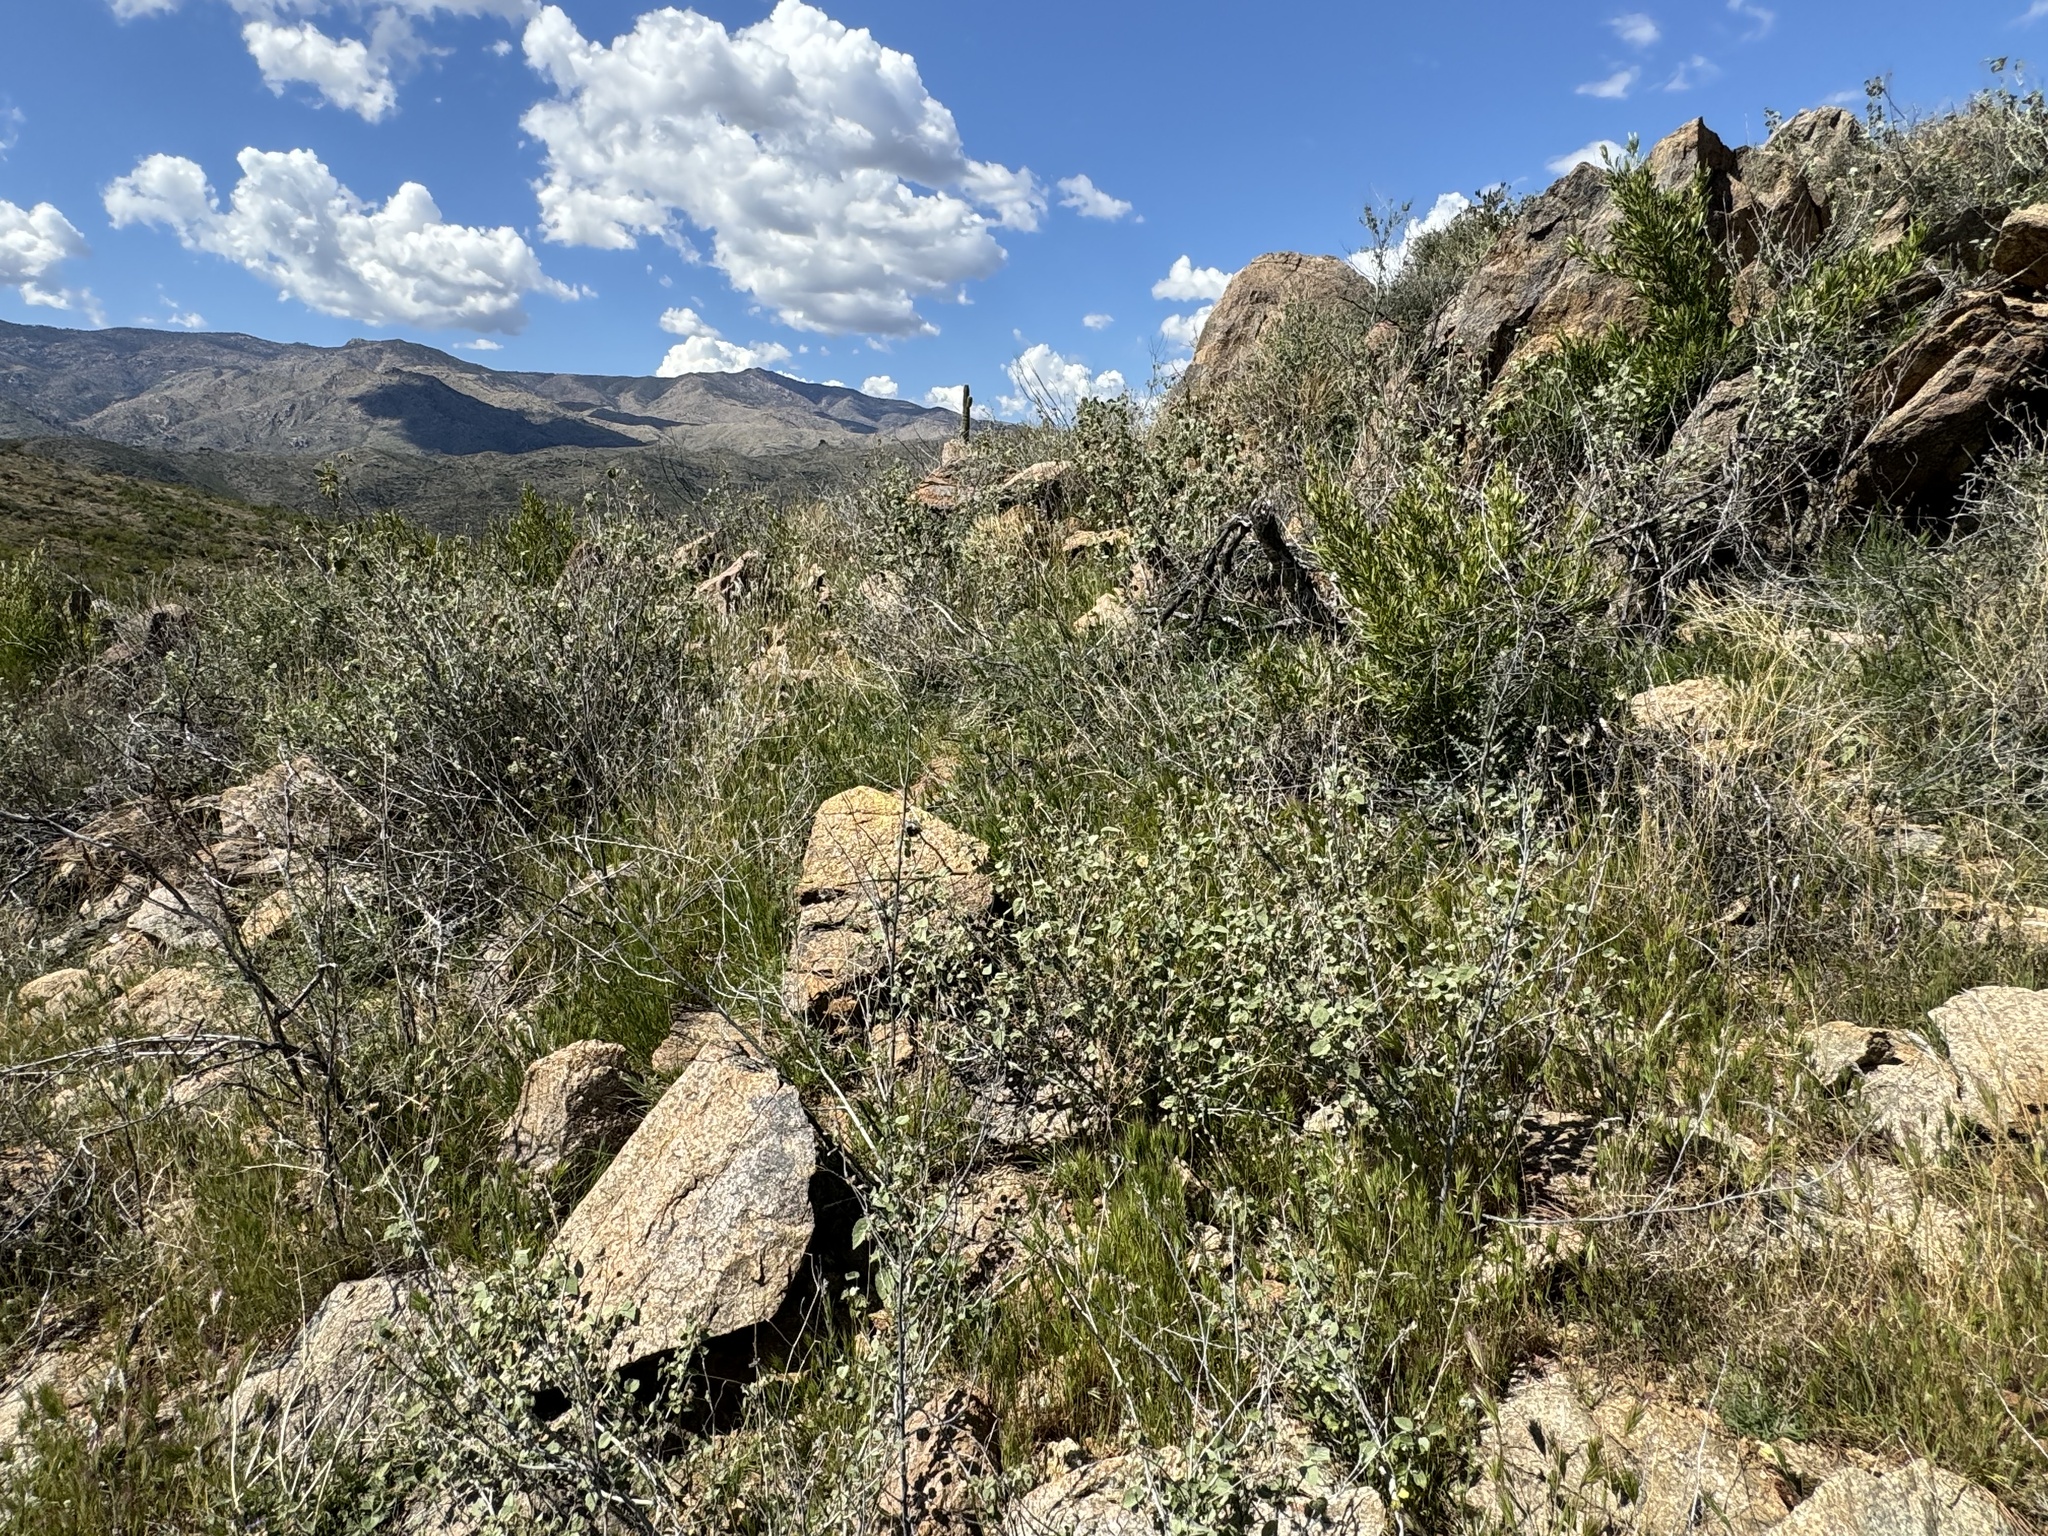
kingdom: Plantae
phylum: Tracheophyta
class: Magnoliopsida
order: Malvales
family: Malvaceae
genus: Abutilon
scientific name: Abutilon abutiloides
